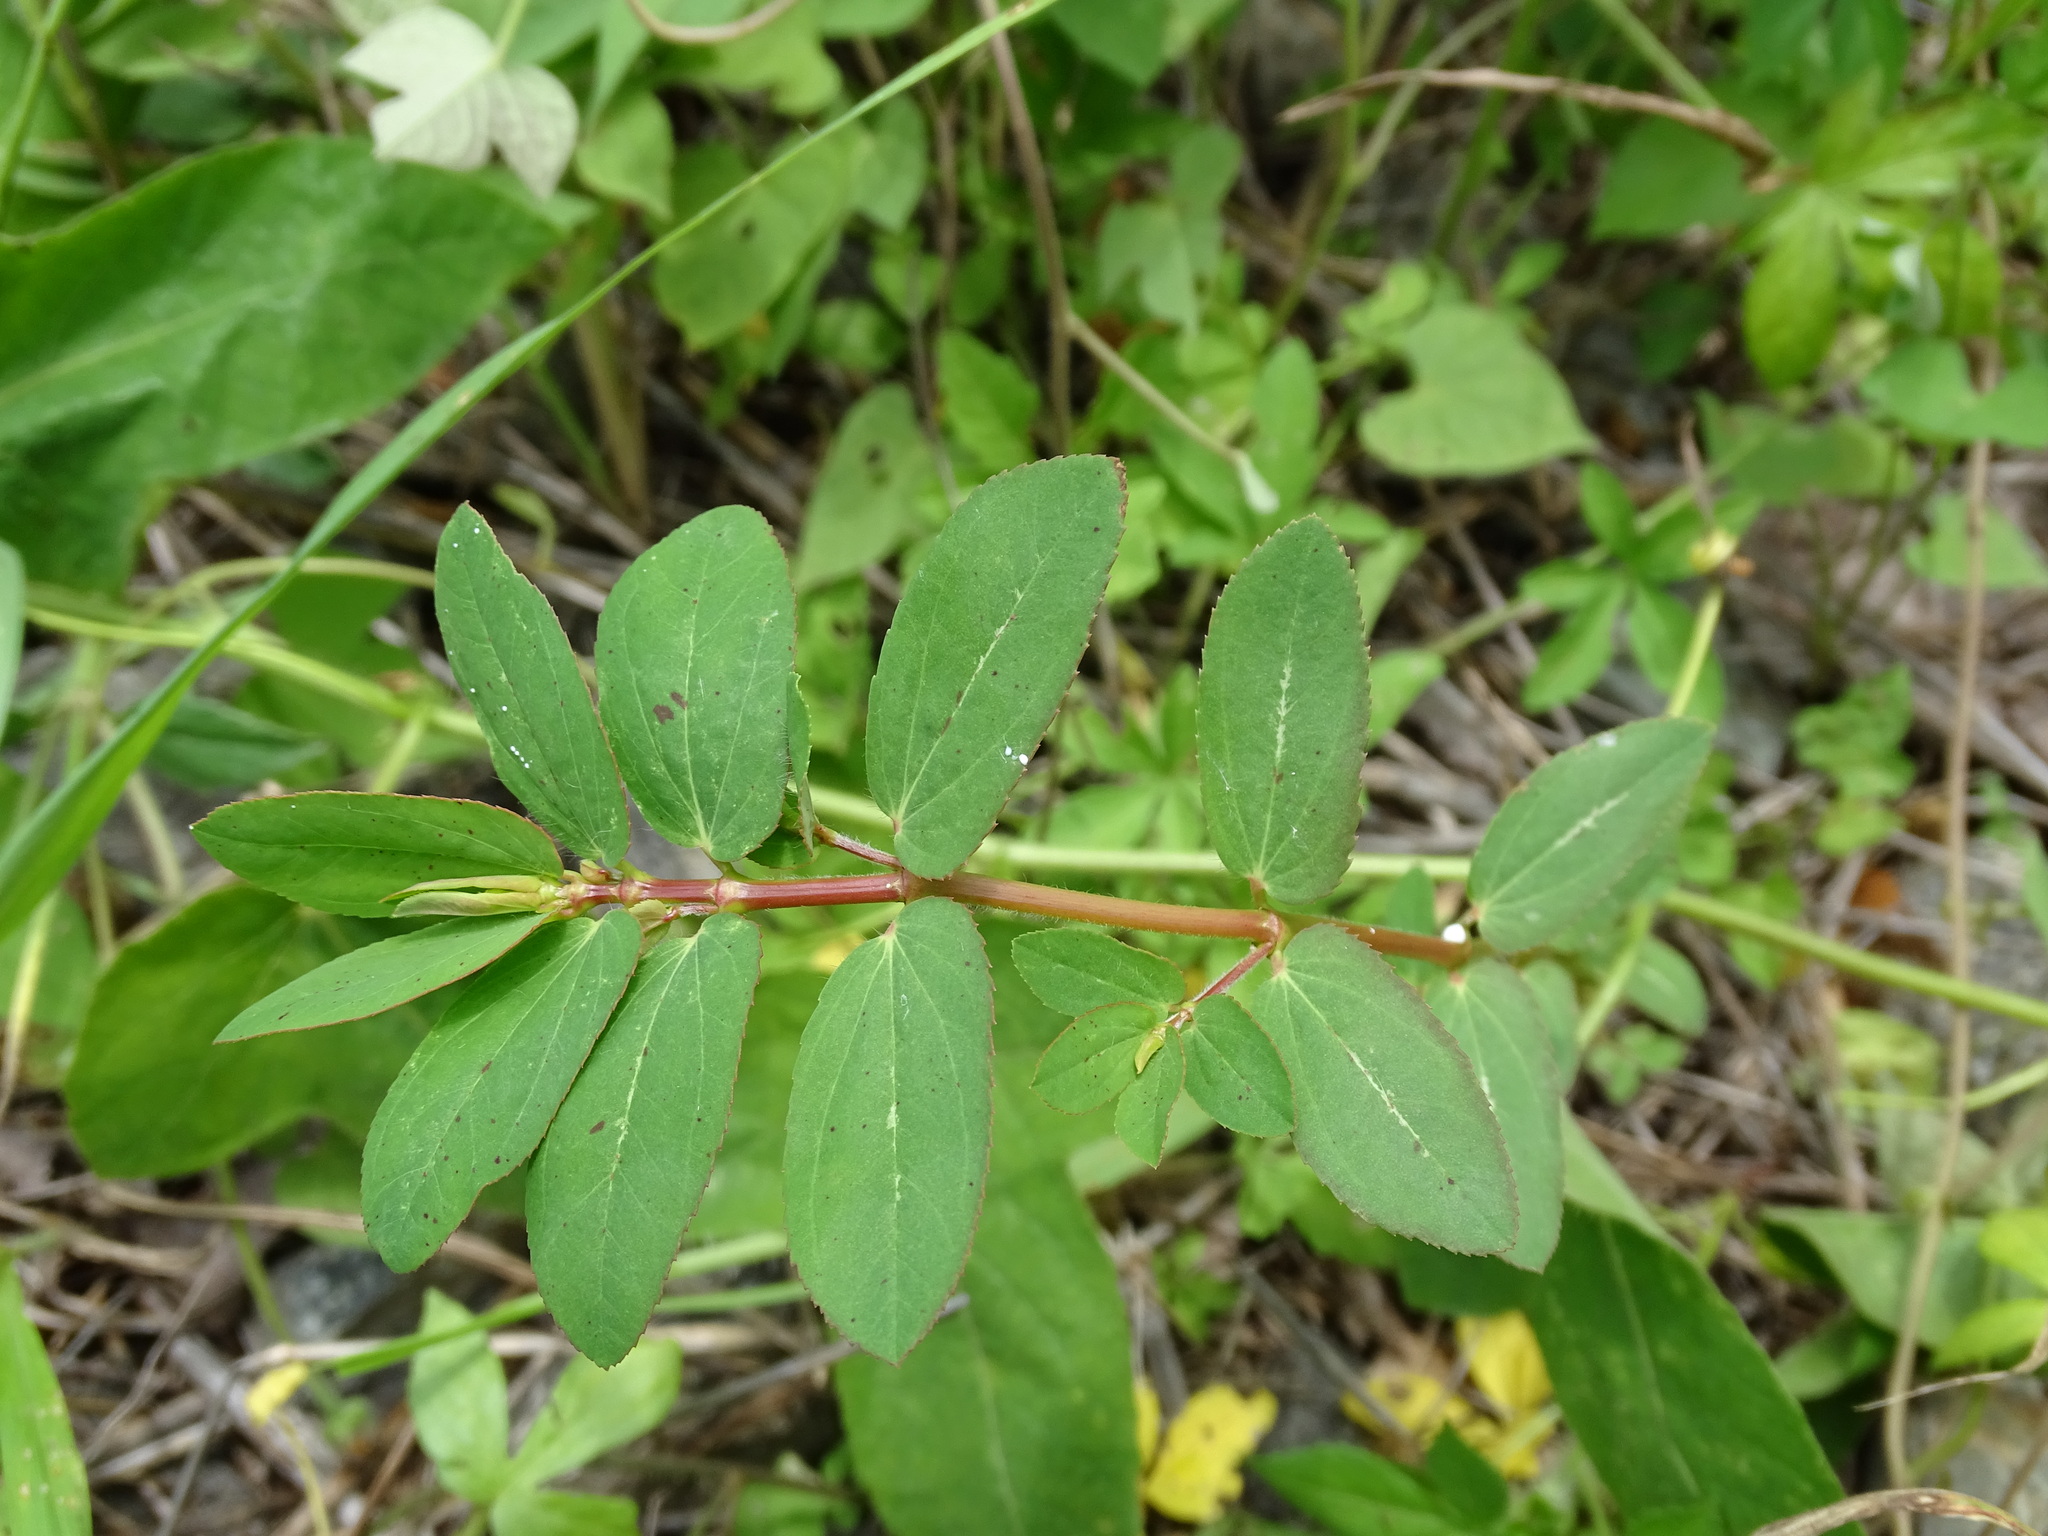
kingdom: Plantae
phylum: Tracheophyta
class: Magnoliopsida
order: Malpighiales
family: Euphorbiaceae
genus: Euphorbia
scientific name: Euphorbia hyssopifolia
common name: Hyssopleaf sandmat
